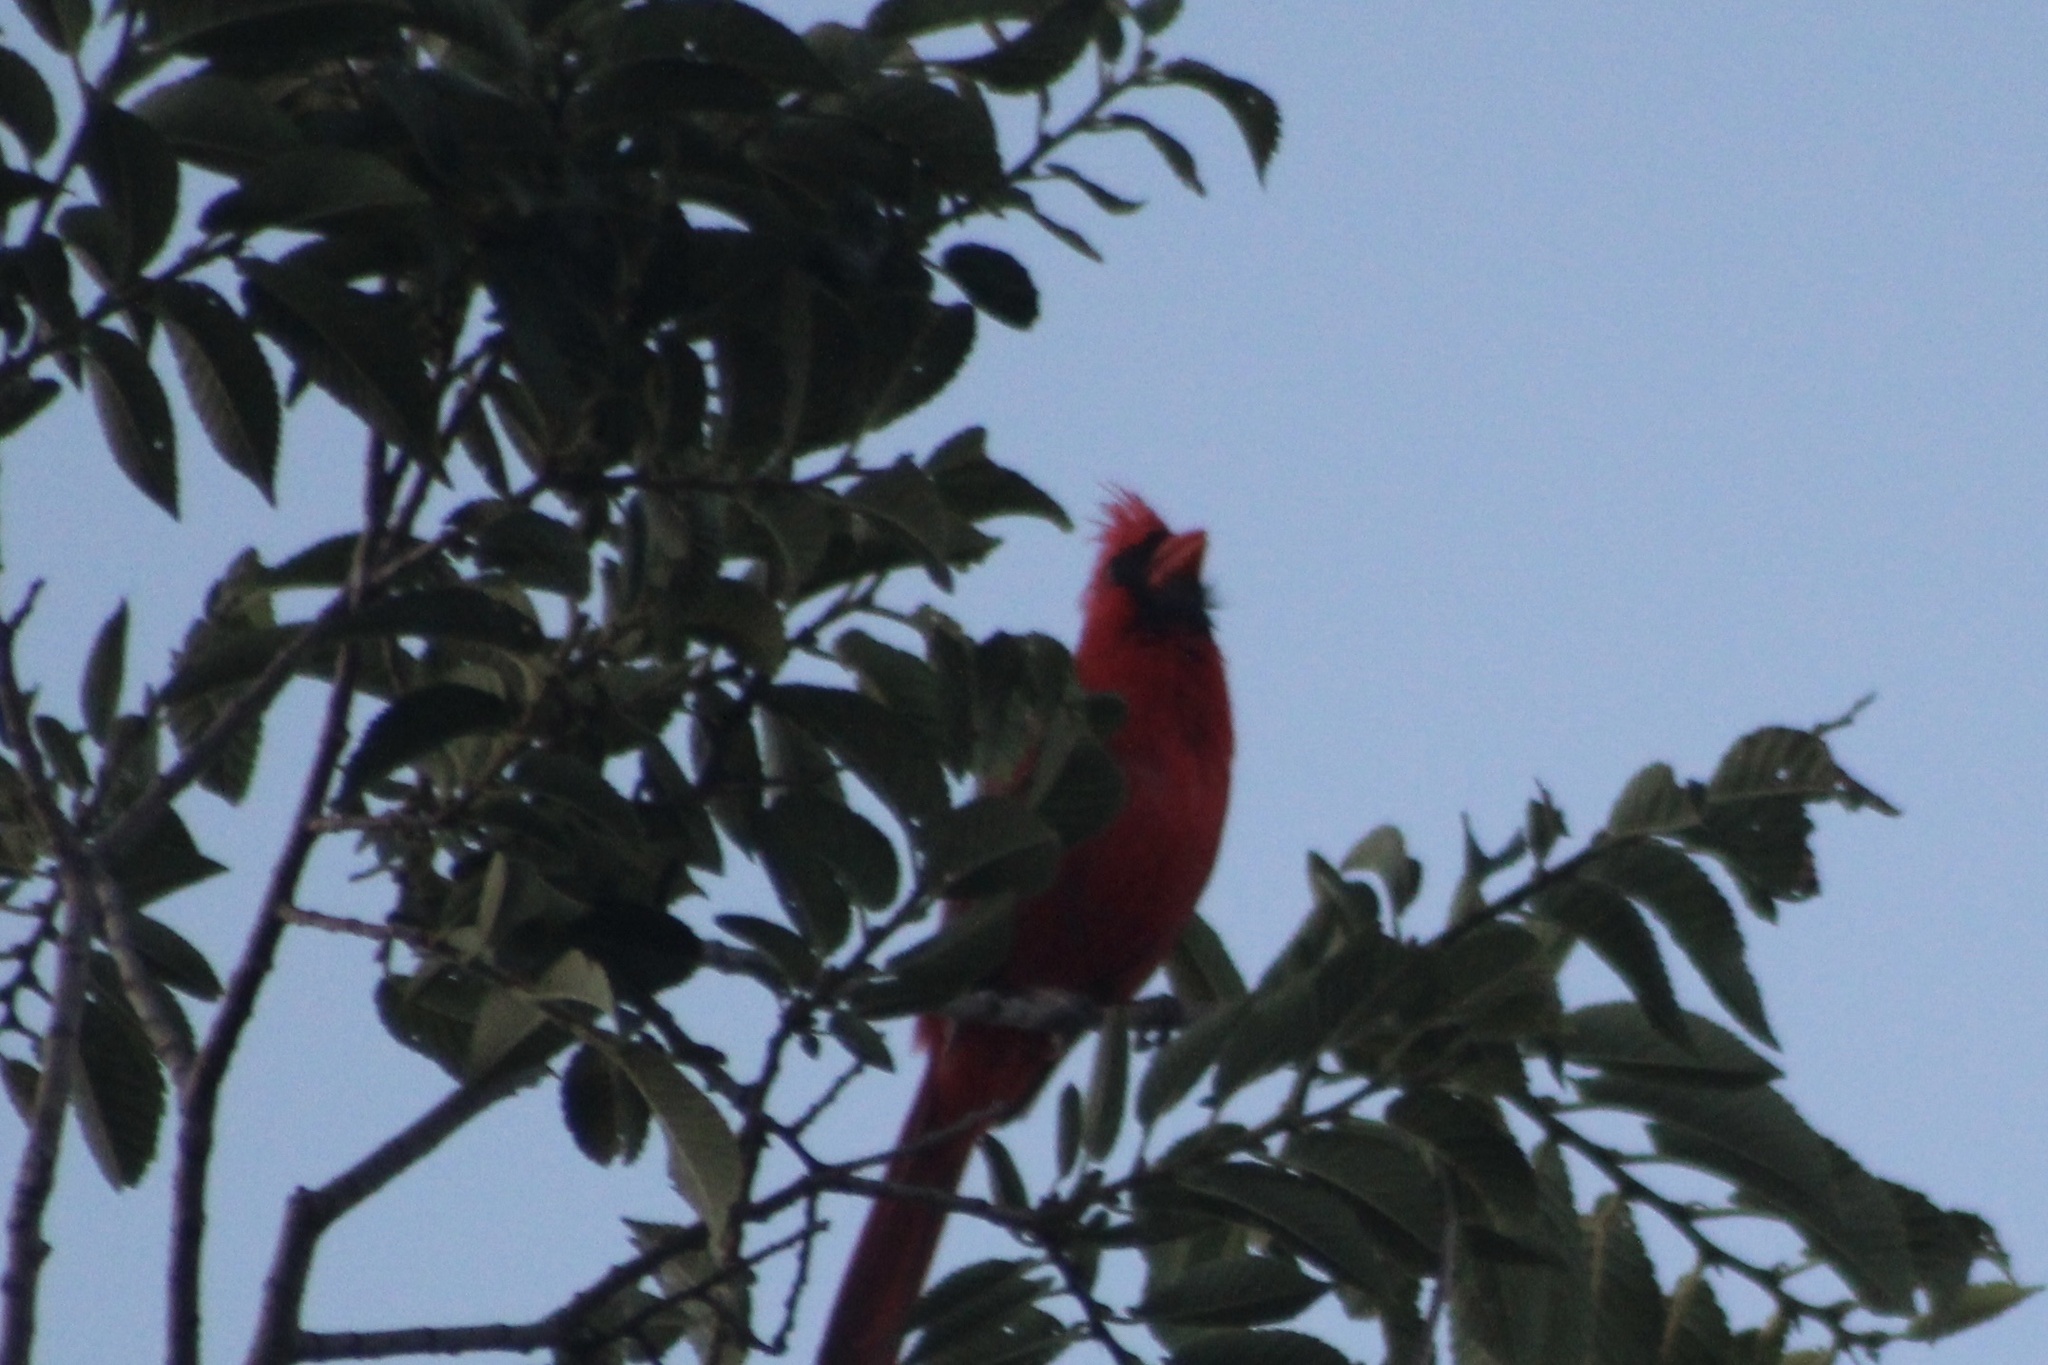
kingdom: Animalia
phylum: Chordata
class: Aves
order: Passeriformes
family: Cardinalidae
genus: Cardinalis
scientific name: Cardinalis cardinalis
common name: Northern cardinal
